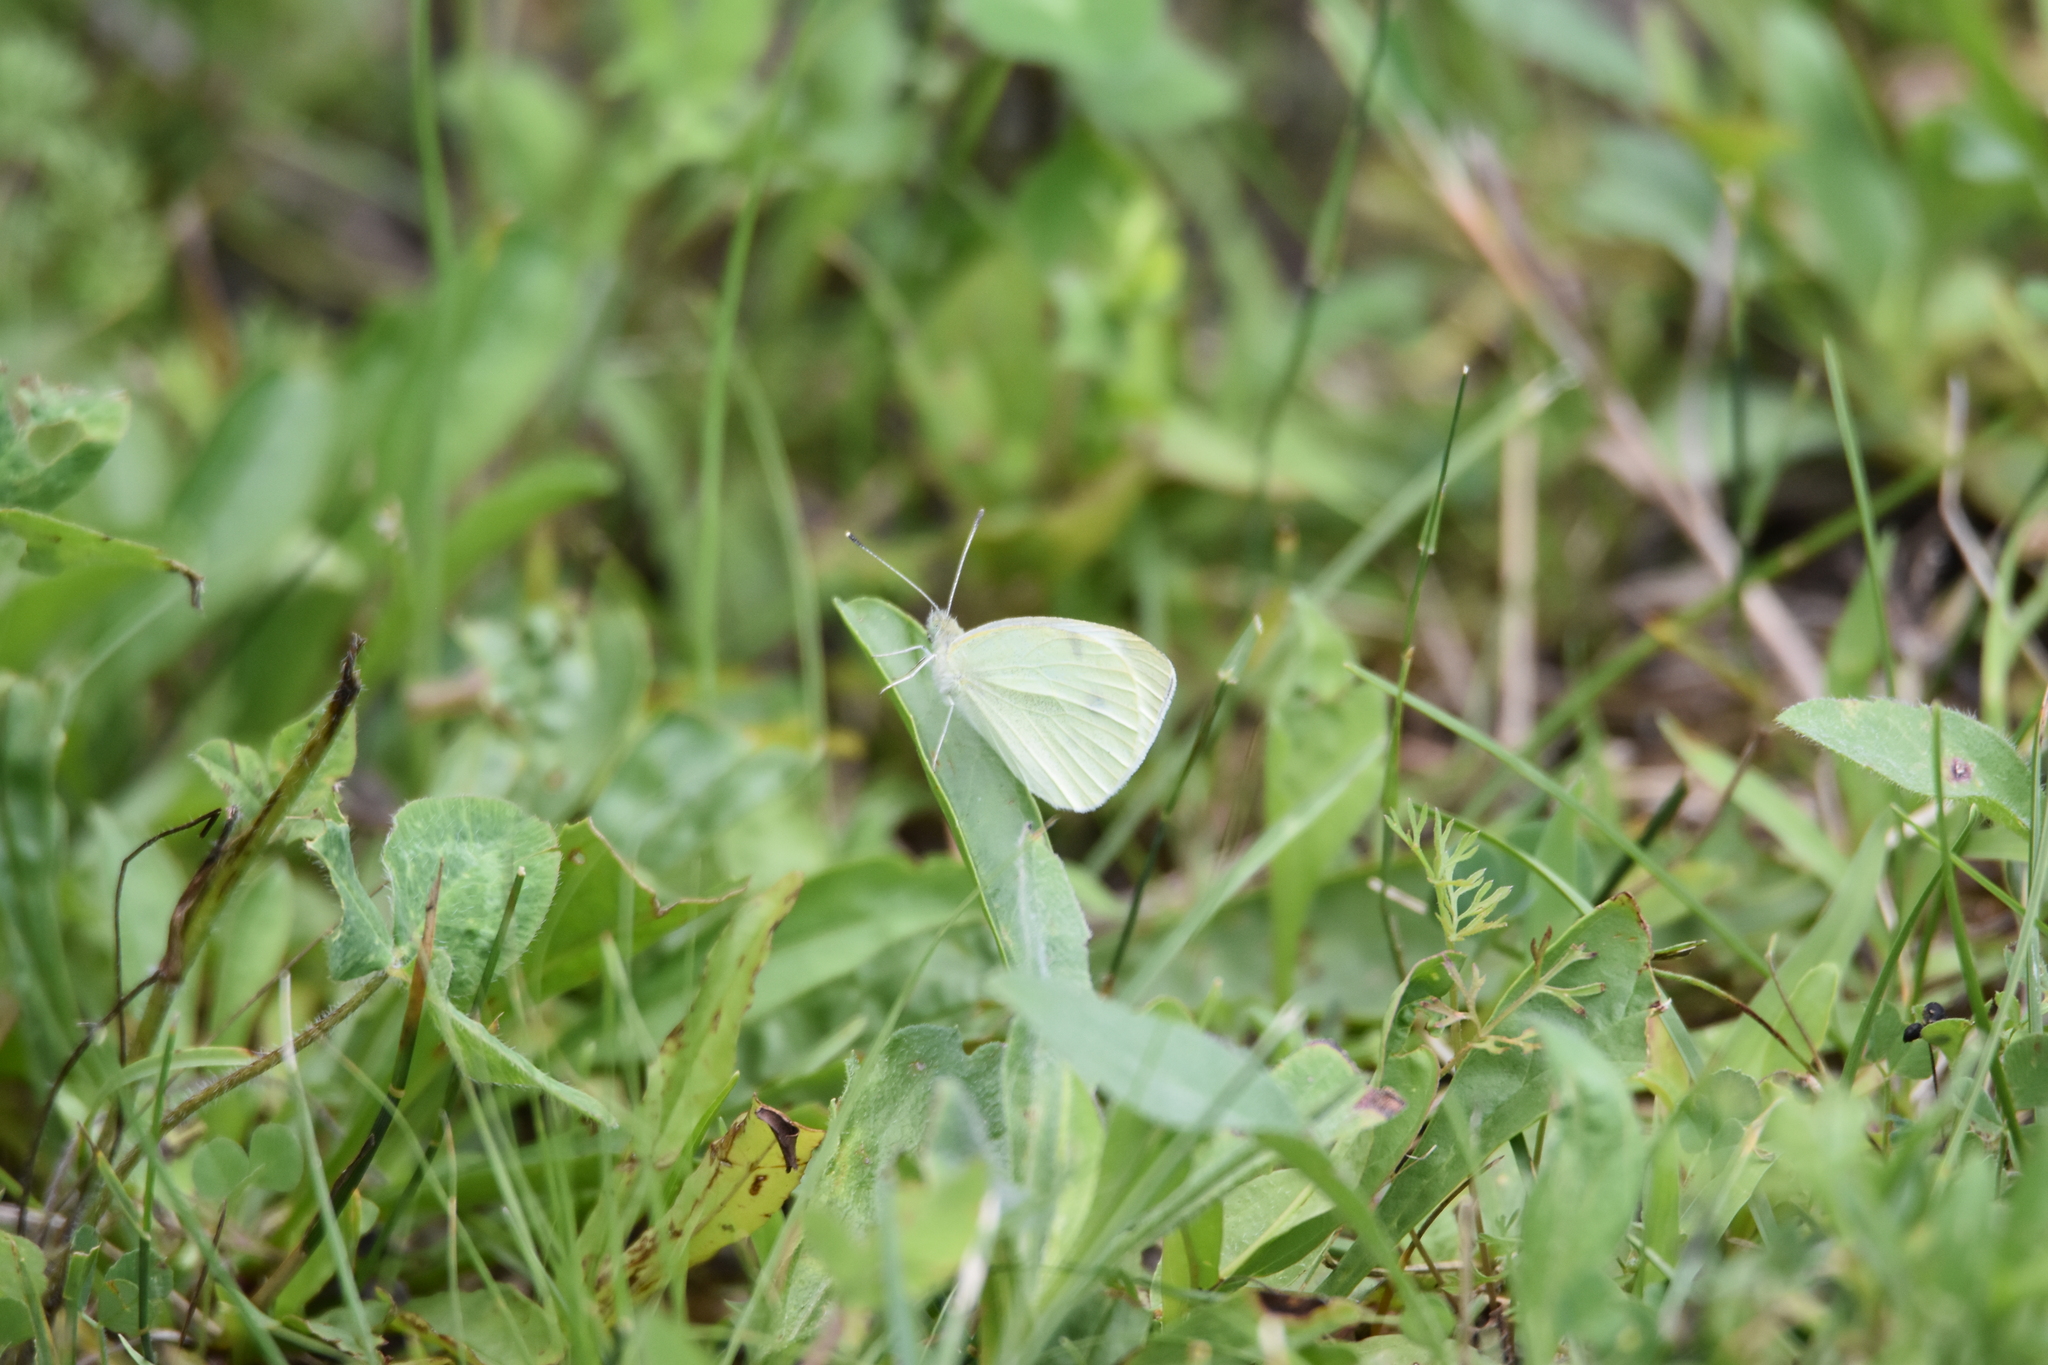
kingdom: Animalia
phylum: Arthropoda
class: Insecta
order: Lepidoptera
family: Pieridae
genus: Pieris
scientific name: Pieris rapae
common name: Small white
